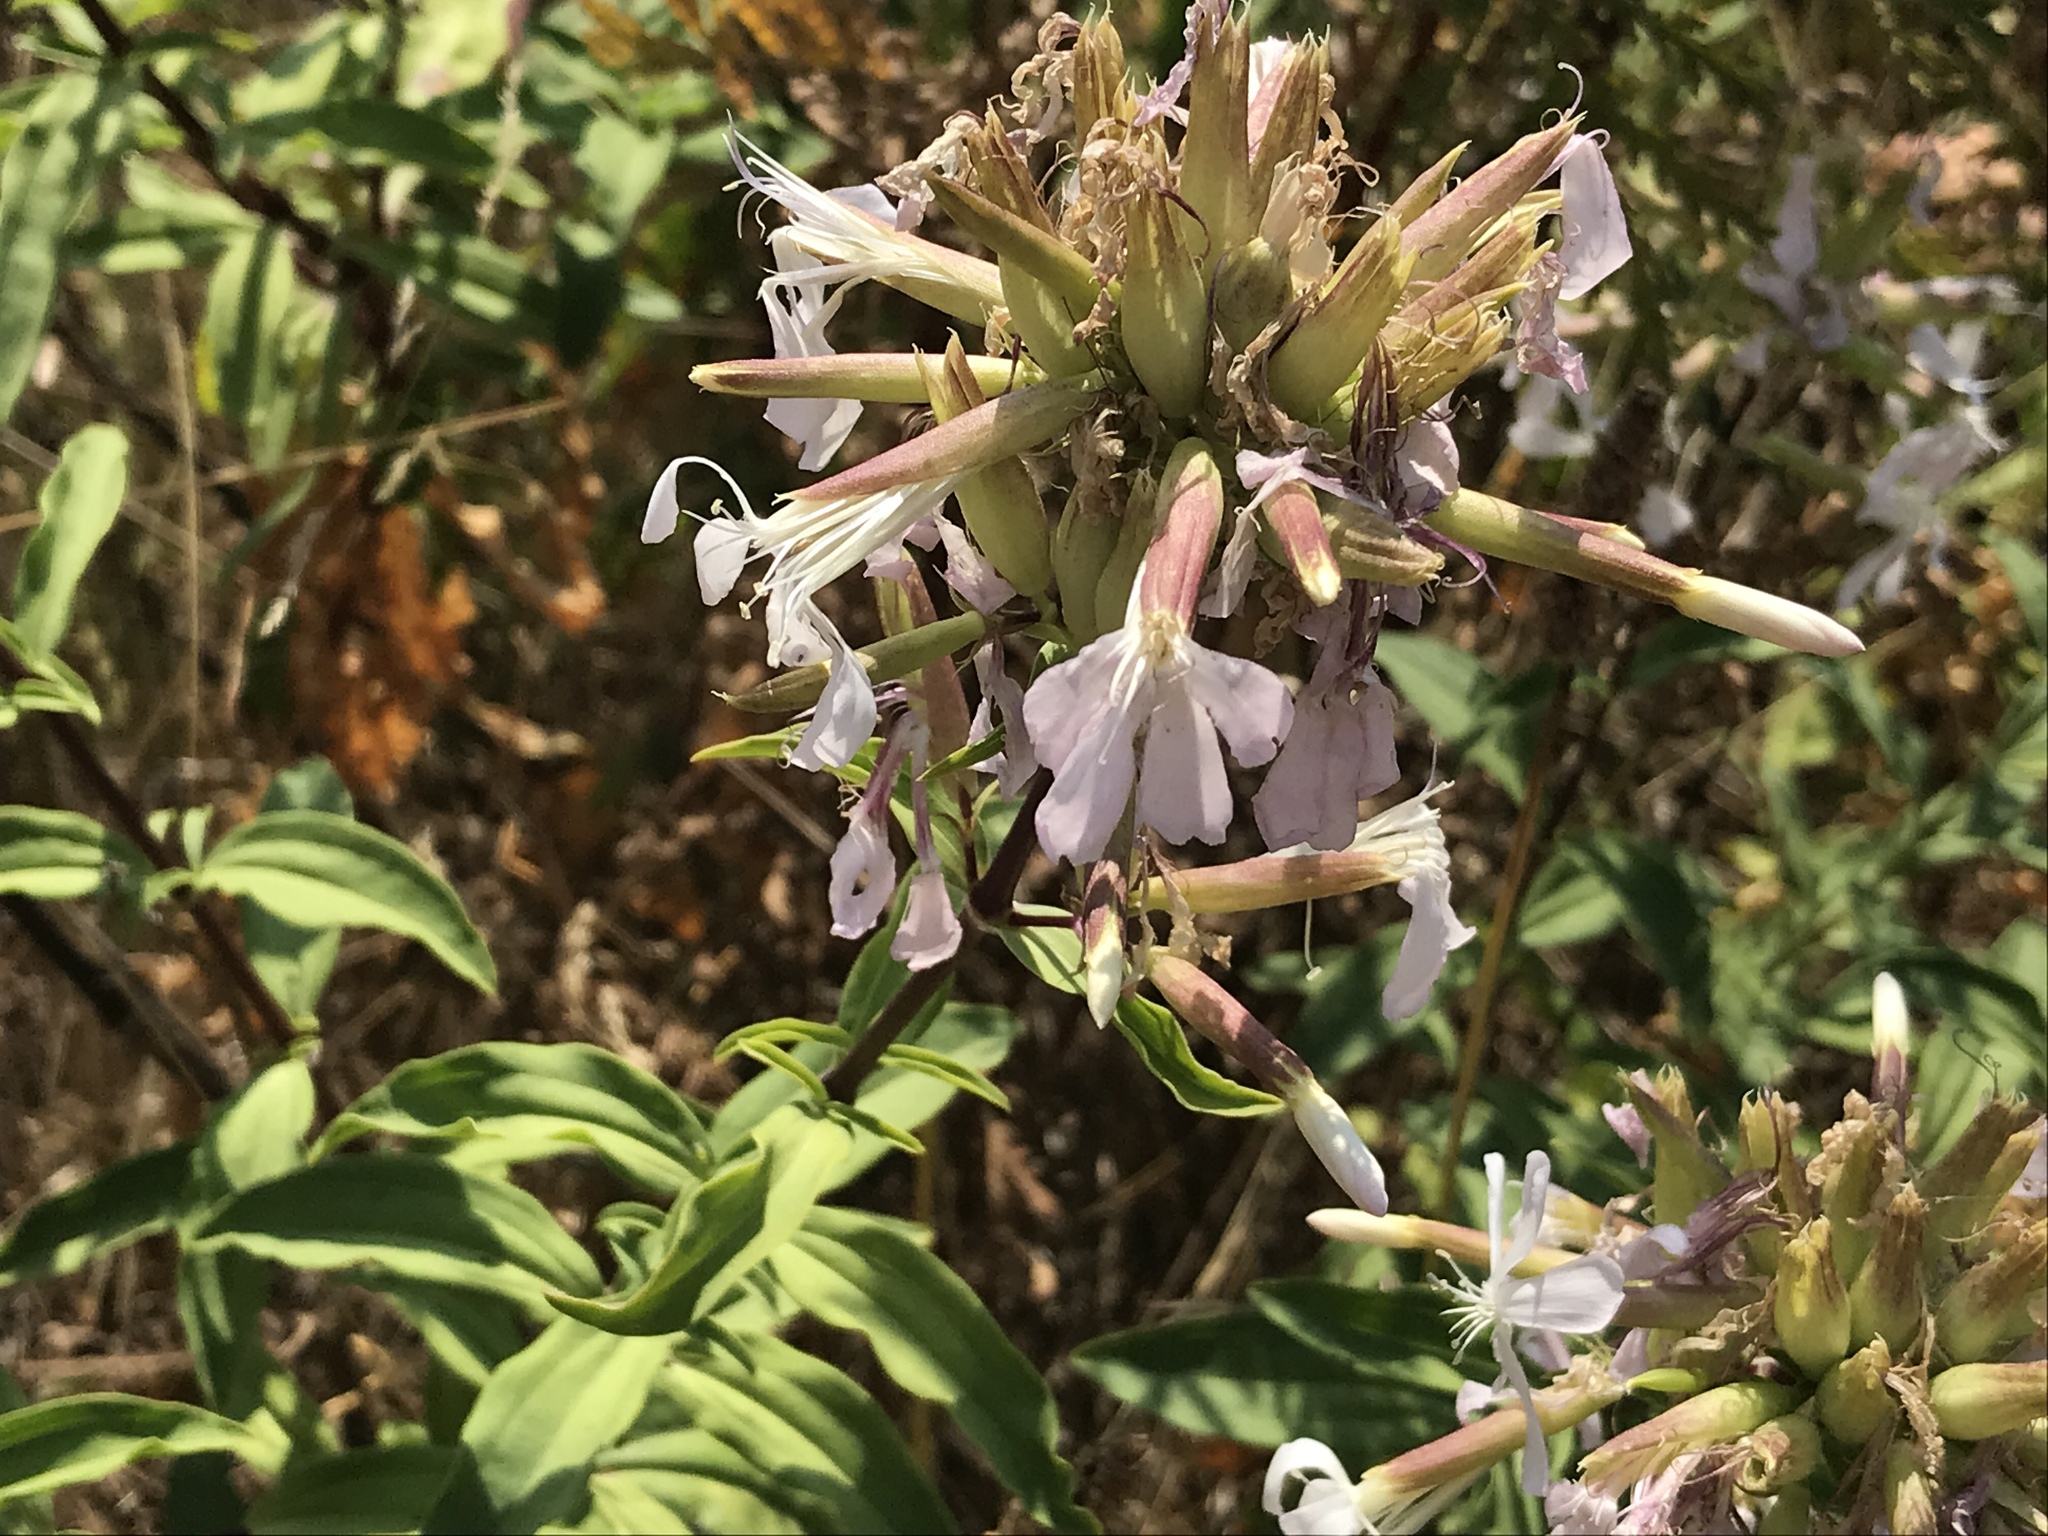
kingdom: Plantae
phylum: Tracheophyta
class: Magnoliopsida
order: Caryophyllales
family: Caryophyllaceae
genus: Saponaria
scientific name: Saponaria officinalis
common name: Soapwort
